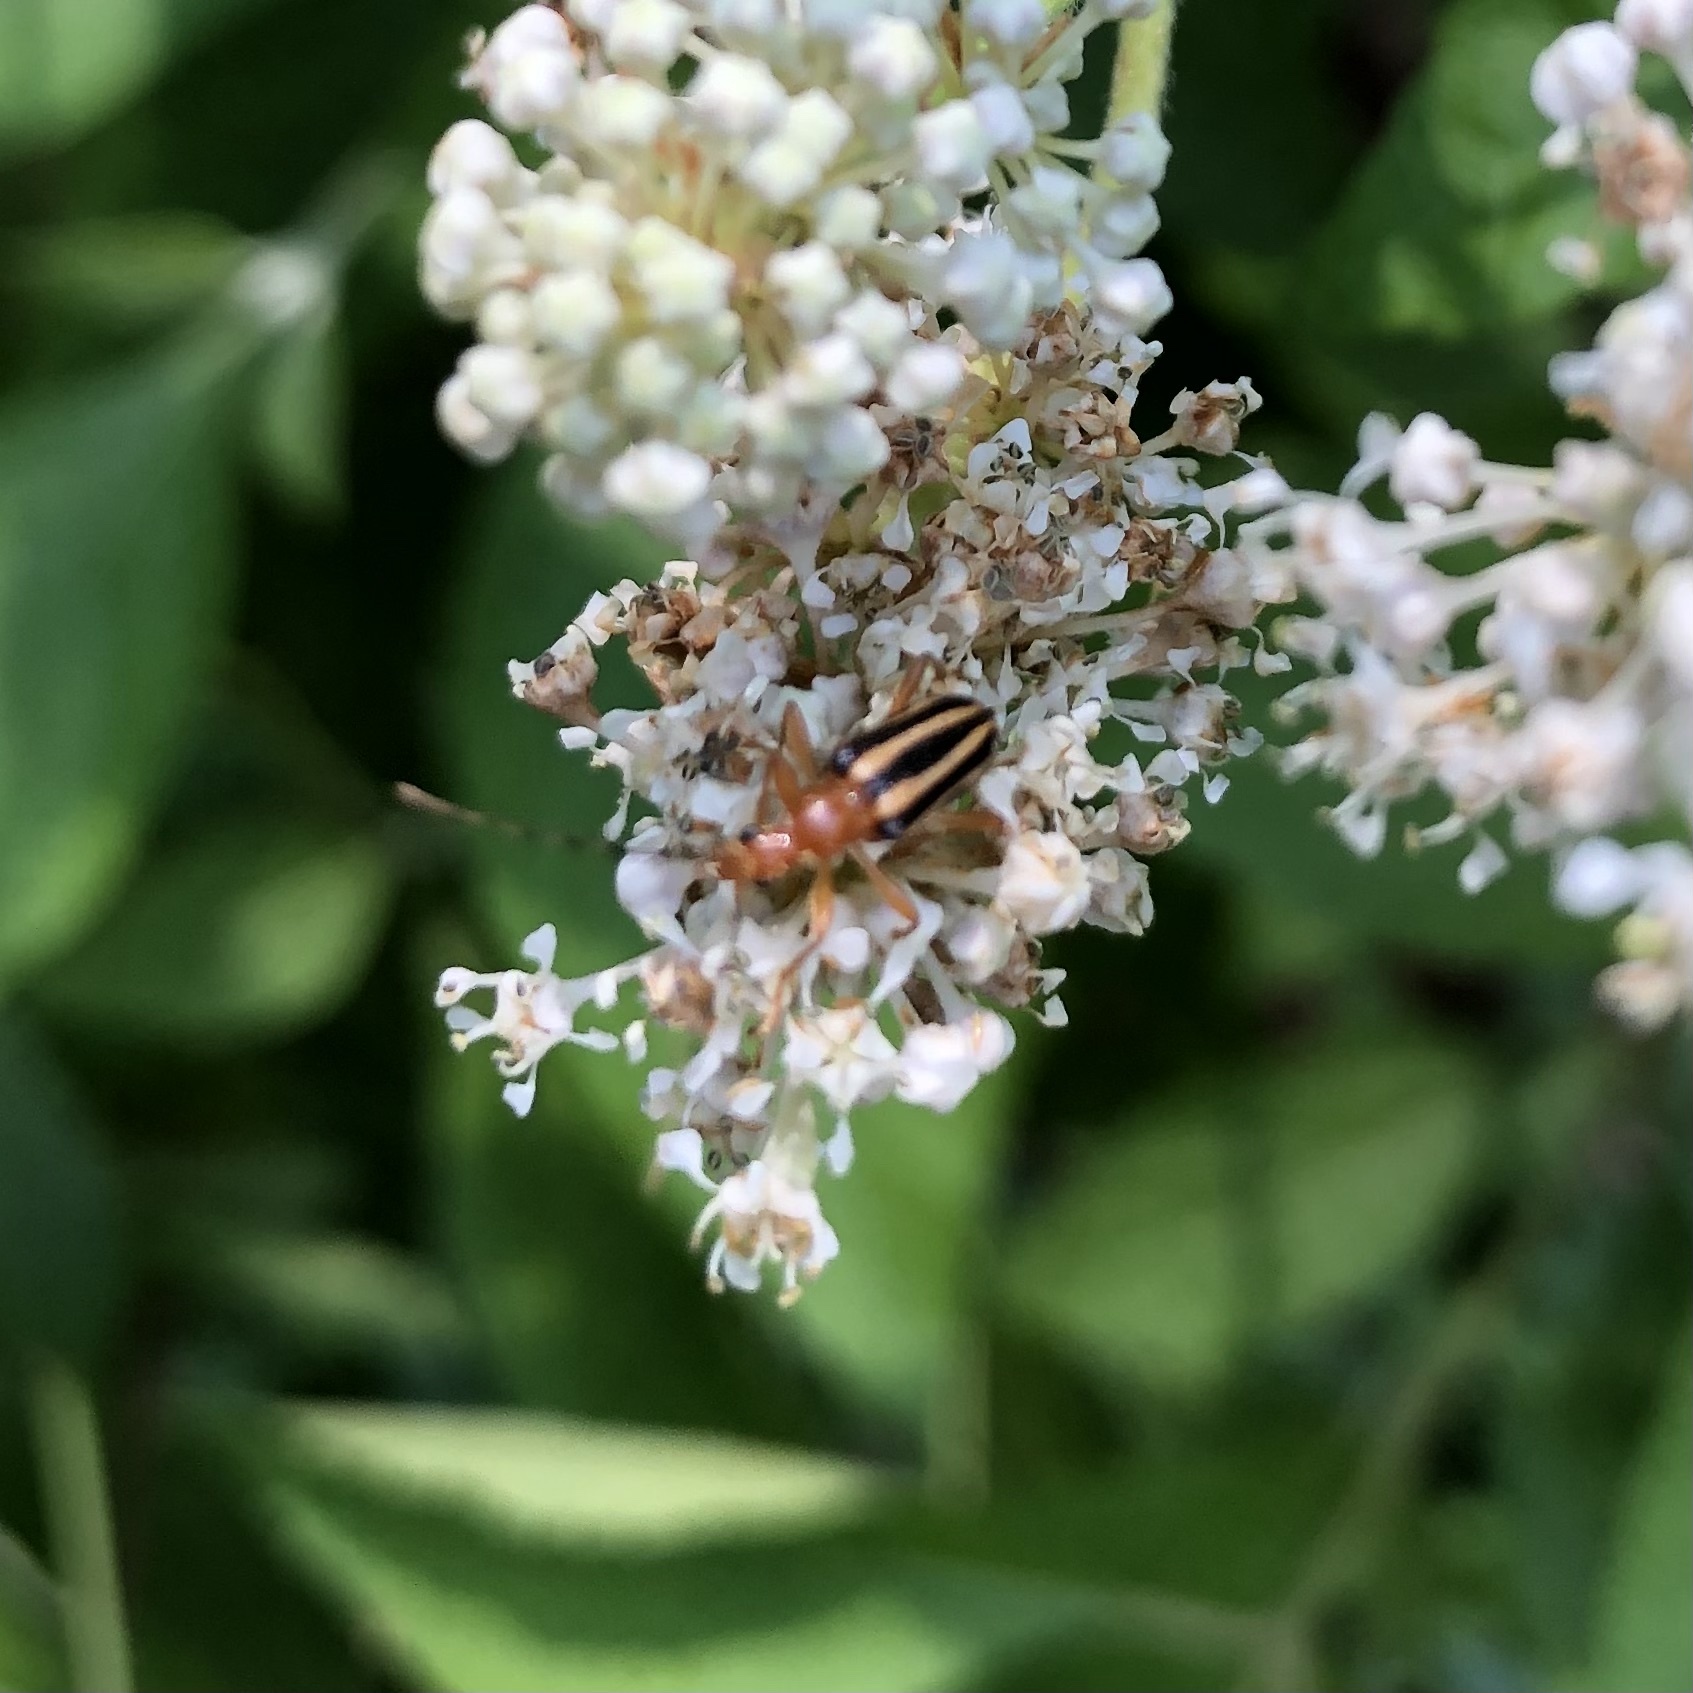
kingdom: Animalia
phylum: Arthropoda
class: Insecta
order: Coleoptera
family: Cerambycidae
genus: Metacmaeops
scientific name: Metacmaeops vittata
